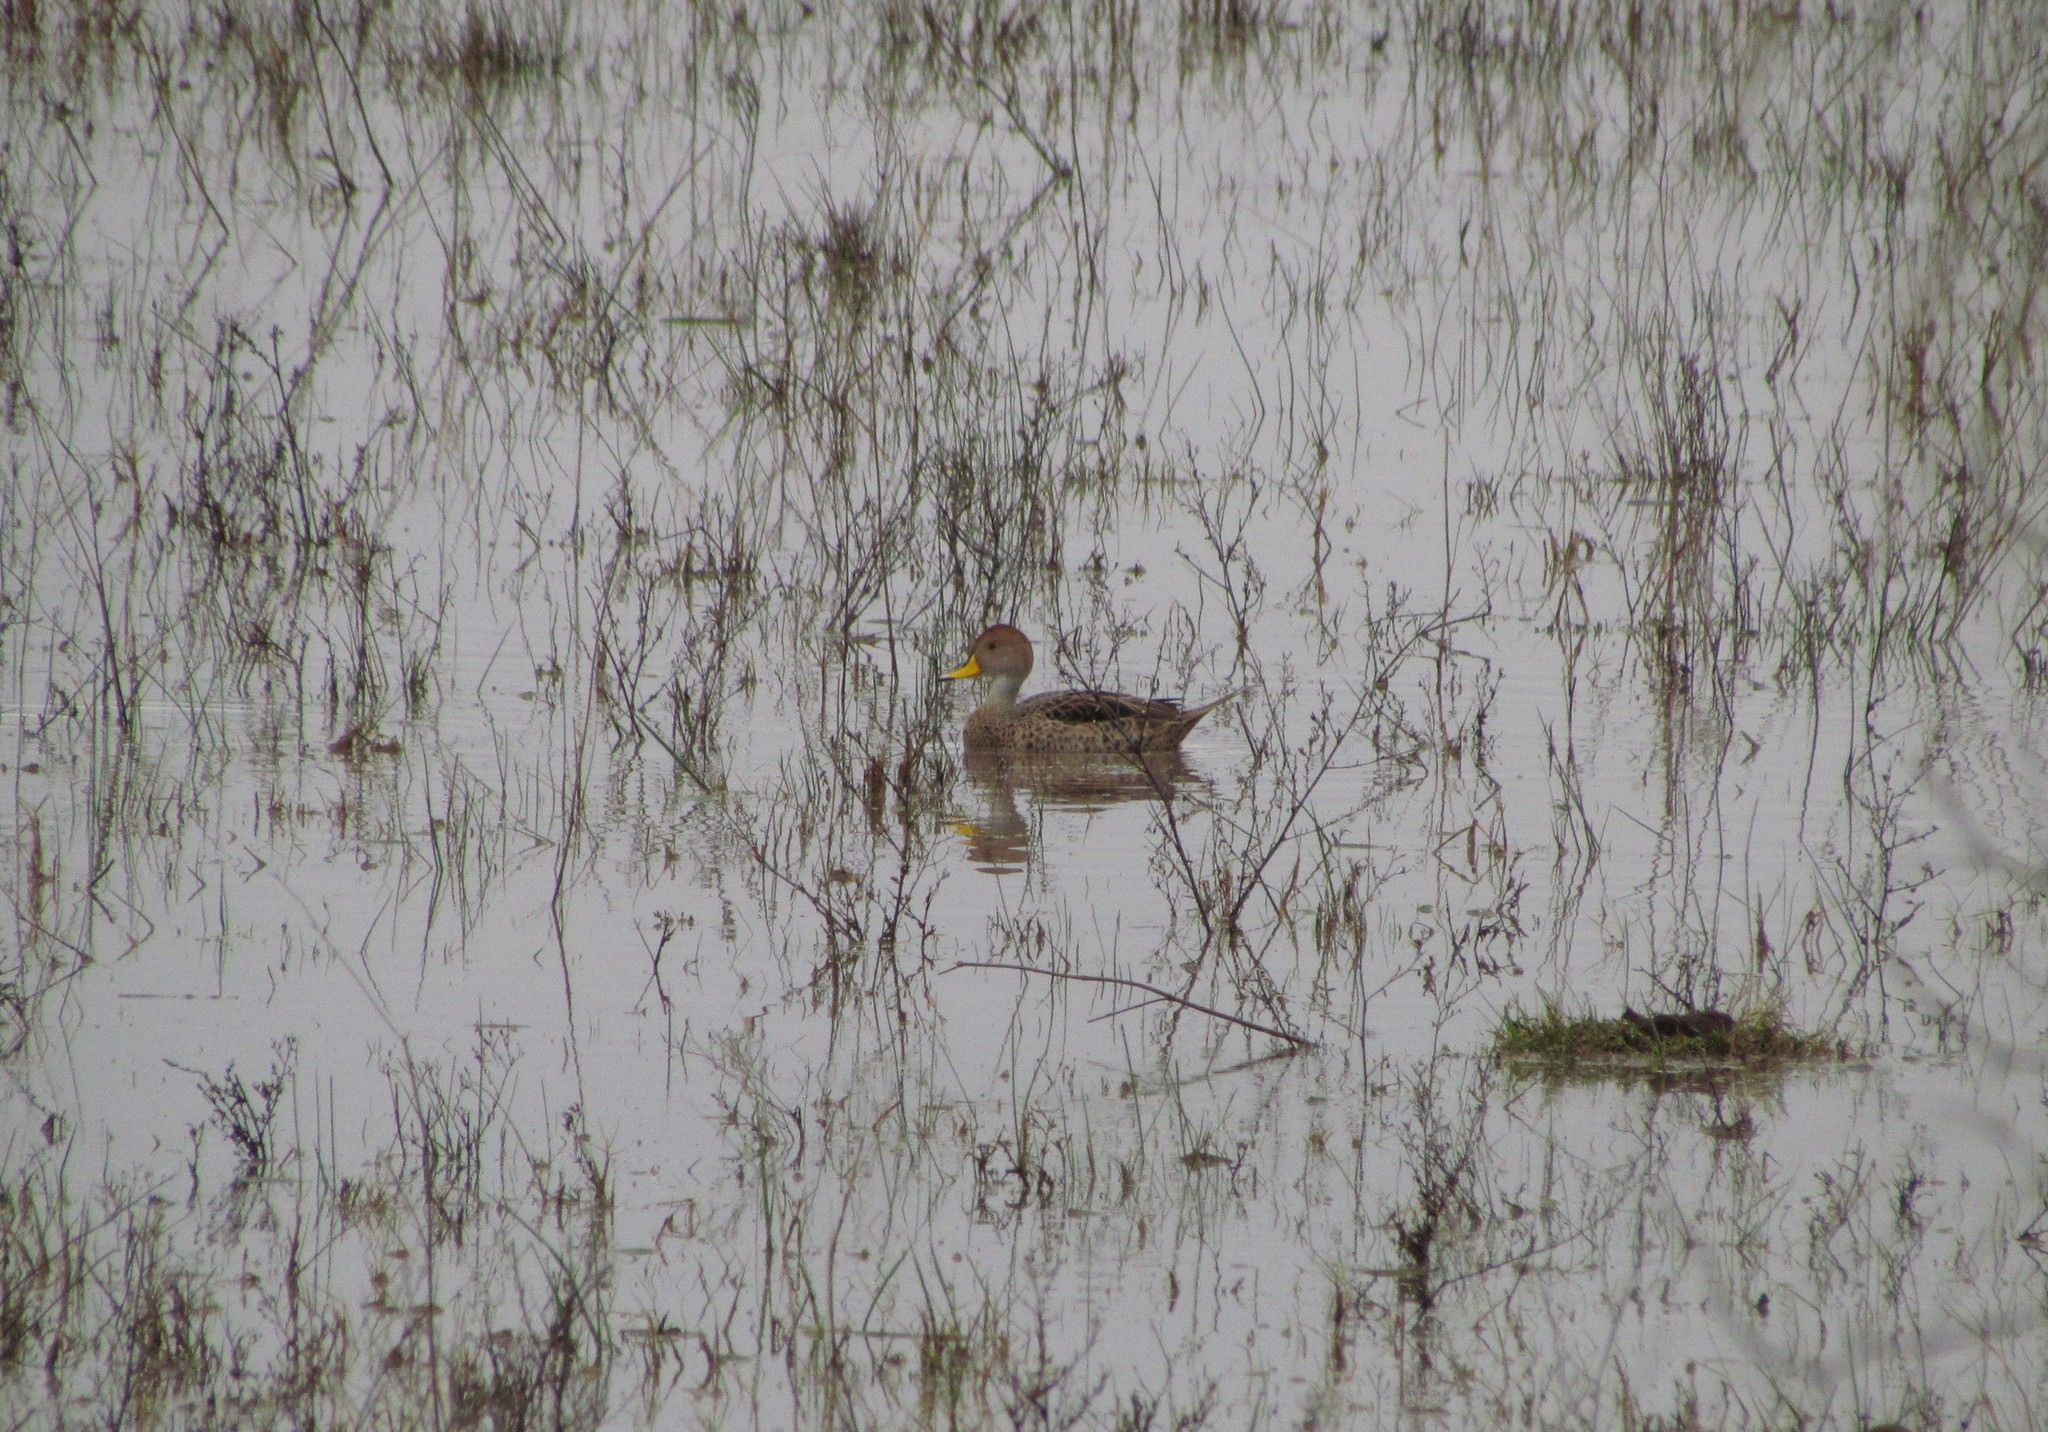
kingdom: Animalia
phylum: Chordata
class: Aves
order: Anseriformes
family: Anatidae
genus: Anas
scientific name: Anas georgica
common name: Yellow-billed pintail
